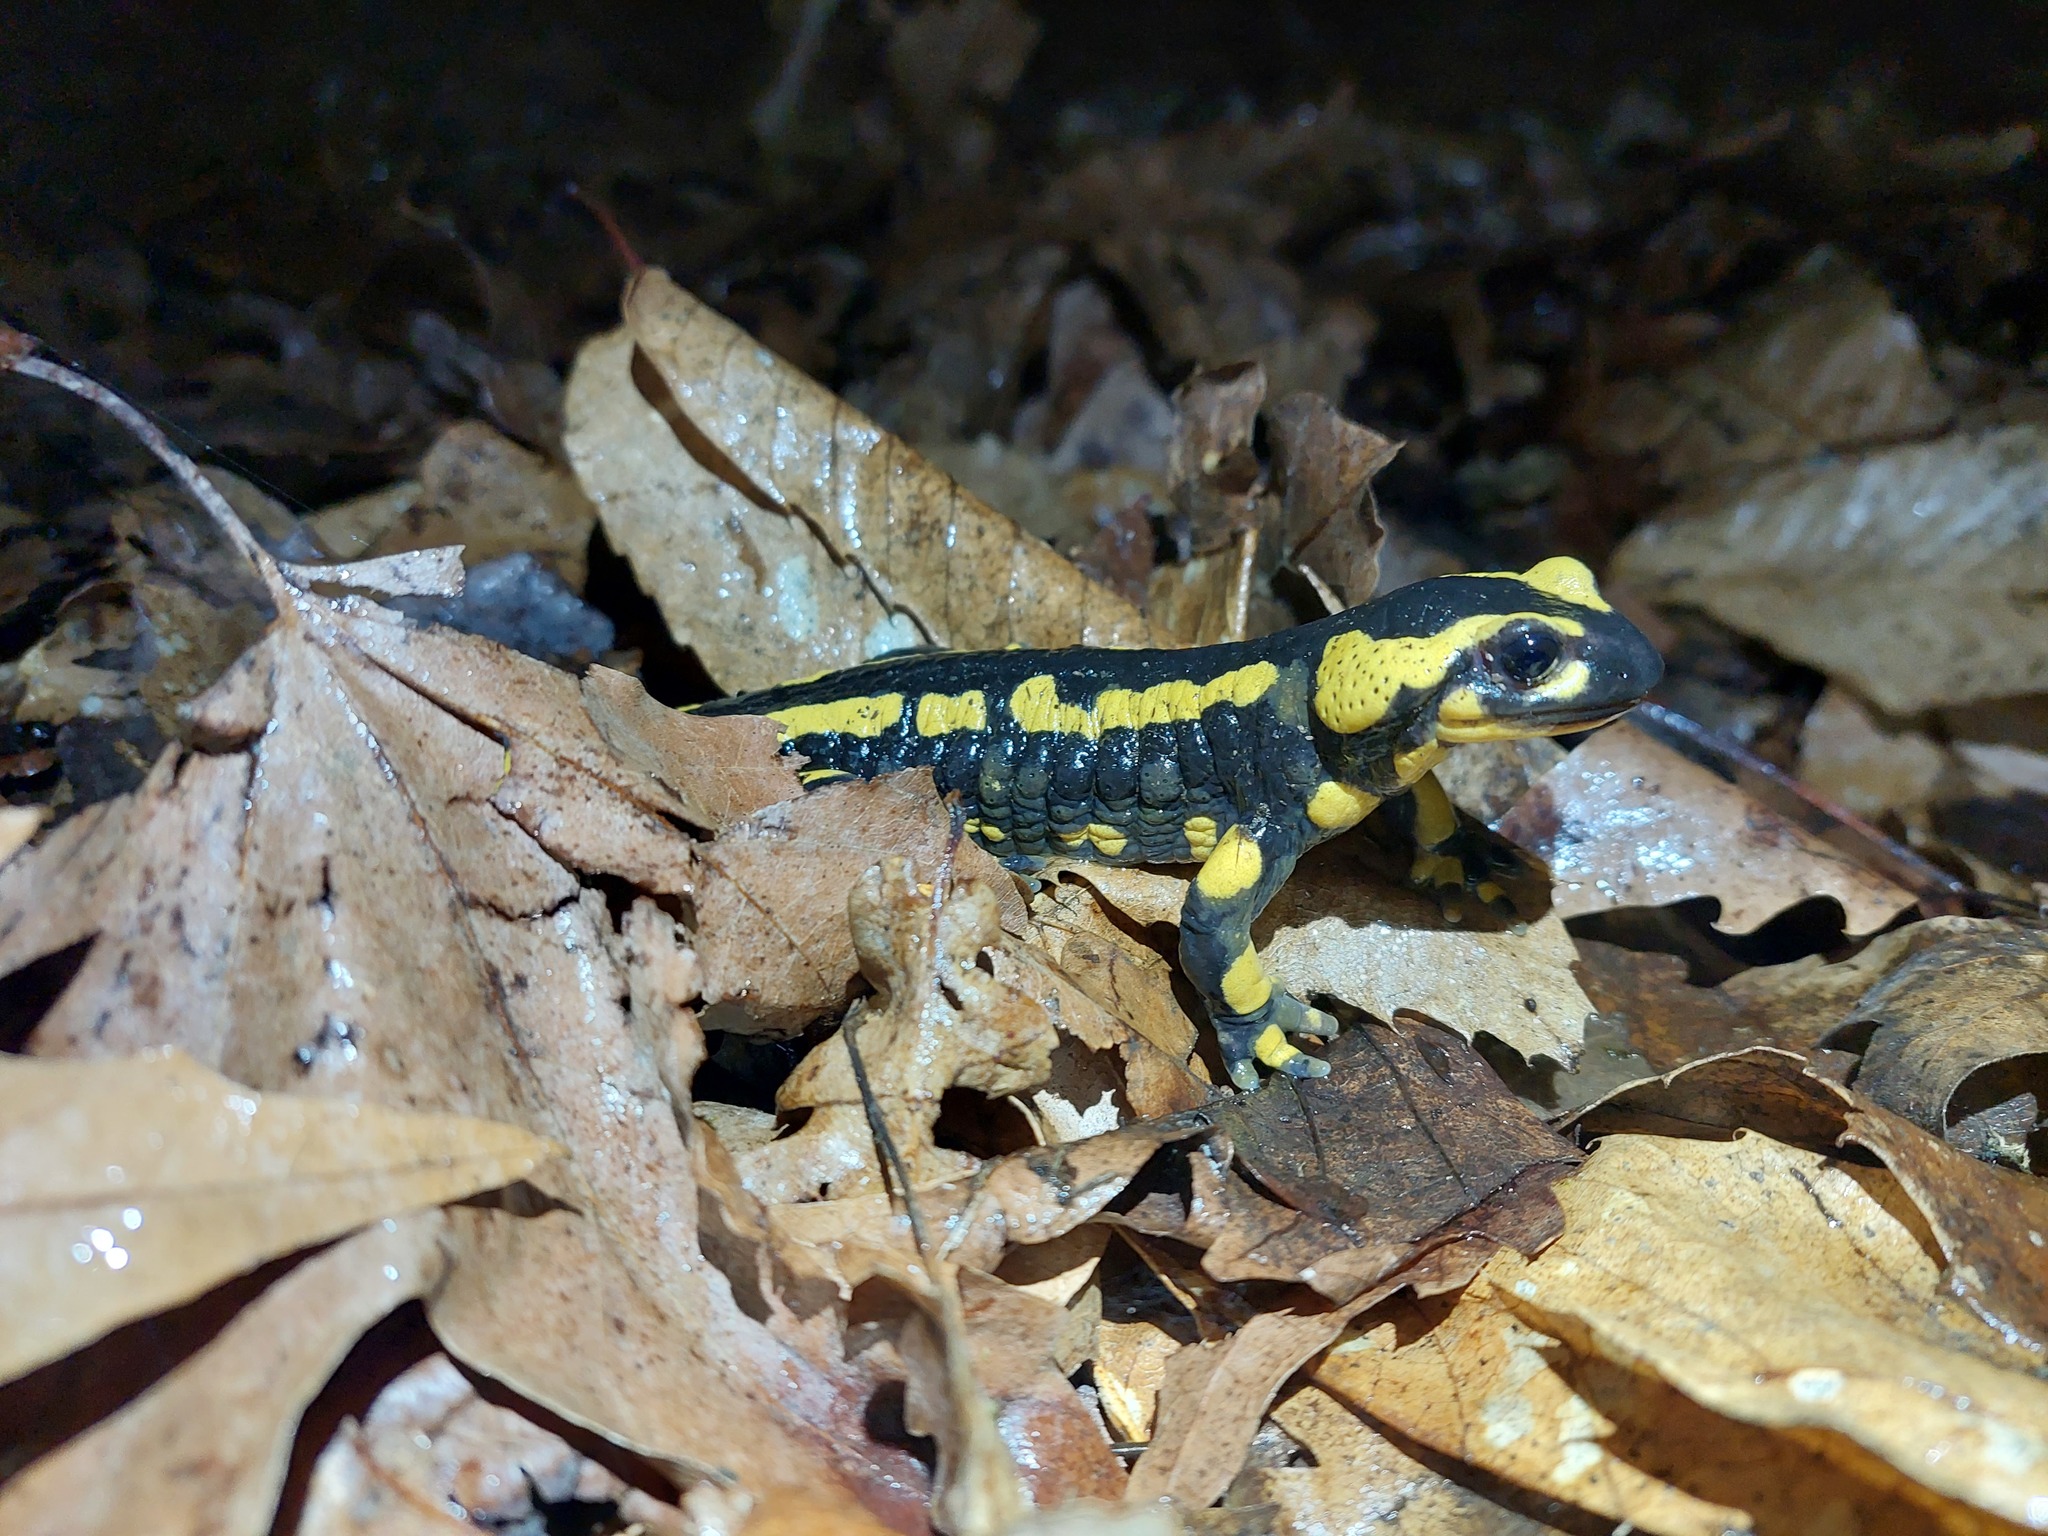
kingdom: Animalia
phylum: Chordata
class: Amphibia
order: Caudata
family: Salamandridae
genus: Salamandra
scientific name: Salamandra salamandra
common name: Fire salamander
